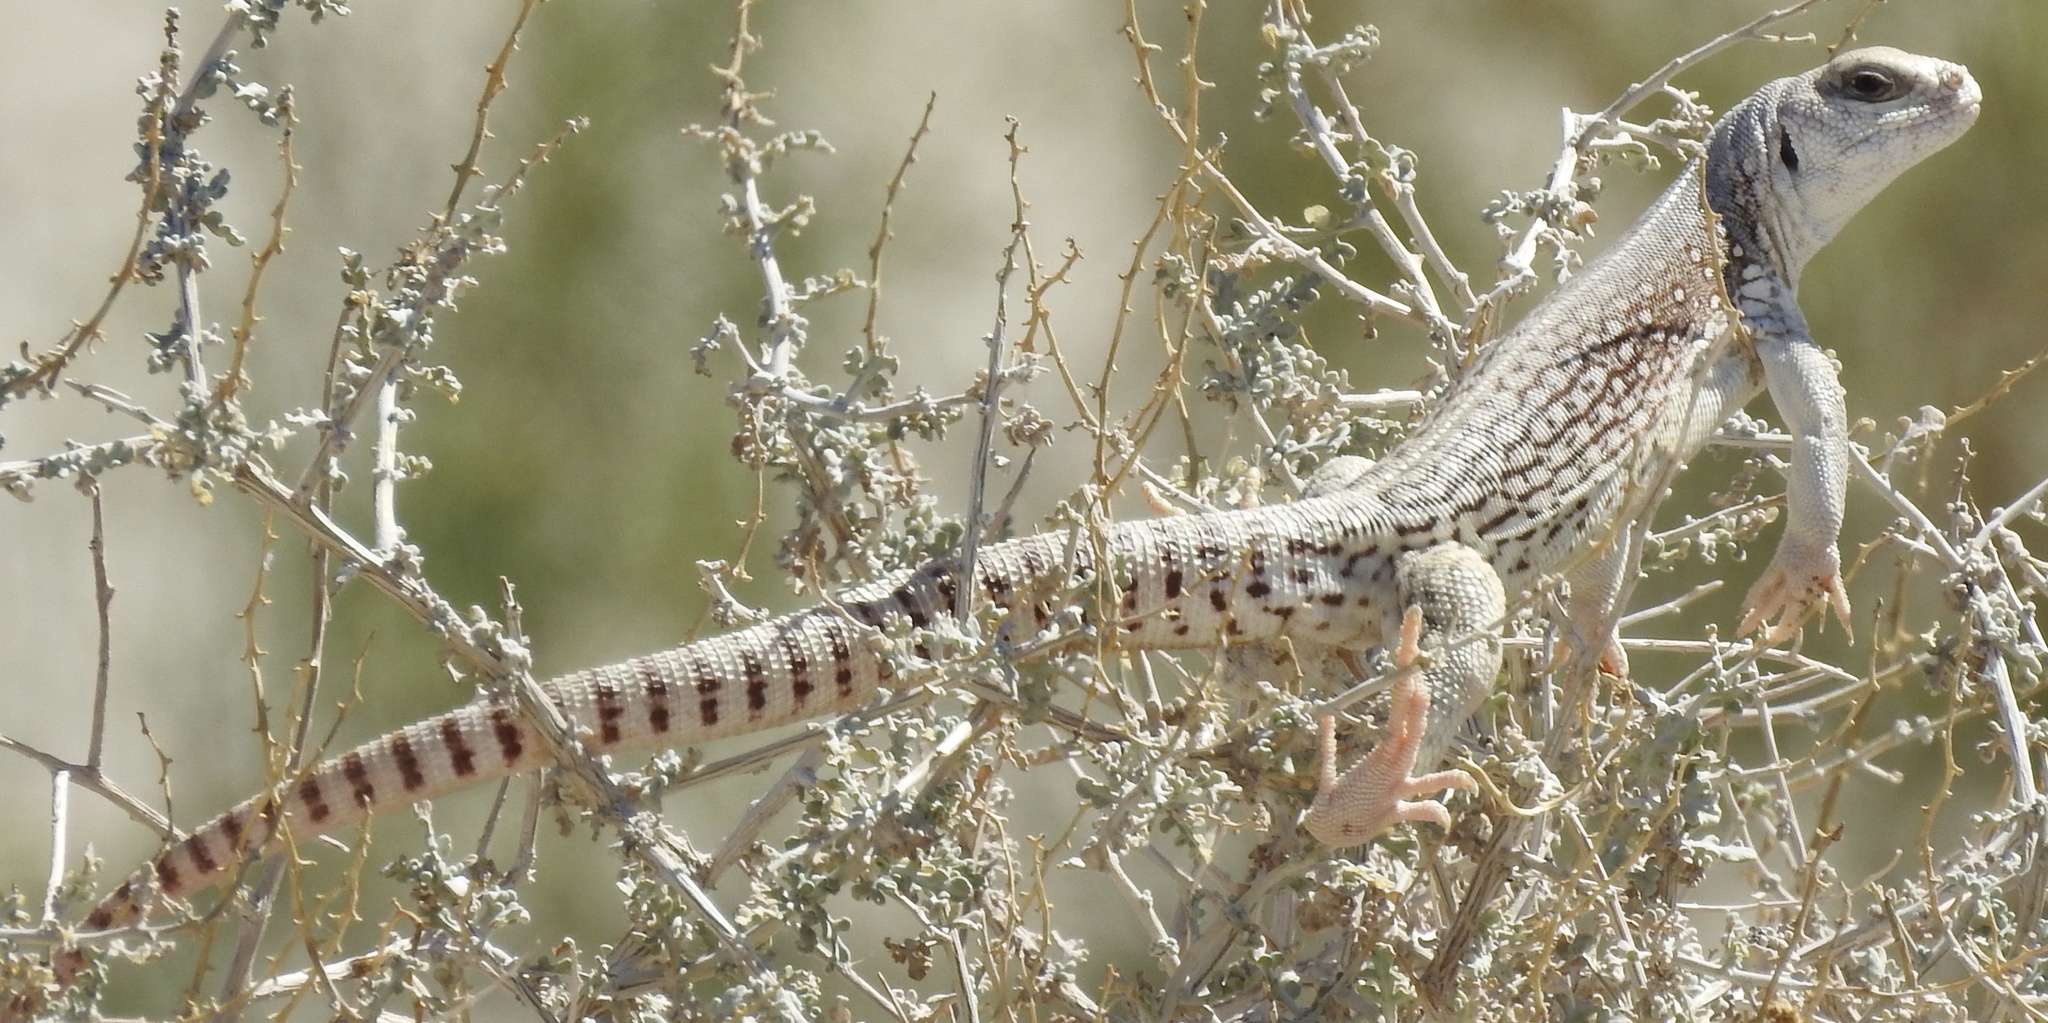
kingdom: Animalia
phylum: Chordata
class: Squamata
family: Iguanidae
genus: Dipsosaurus
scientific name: Dipsosaurus dorsalis
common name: Desert iguana
